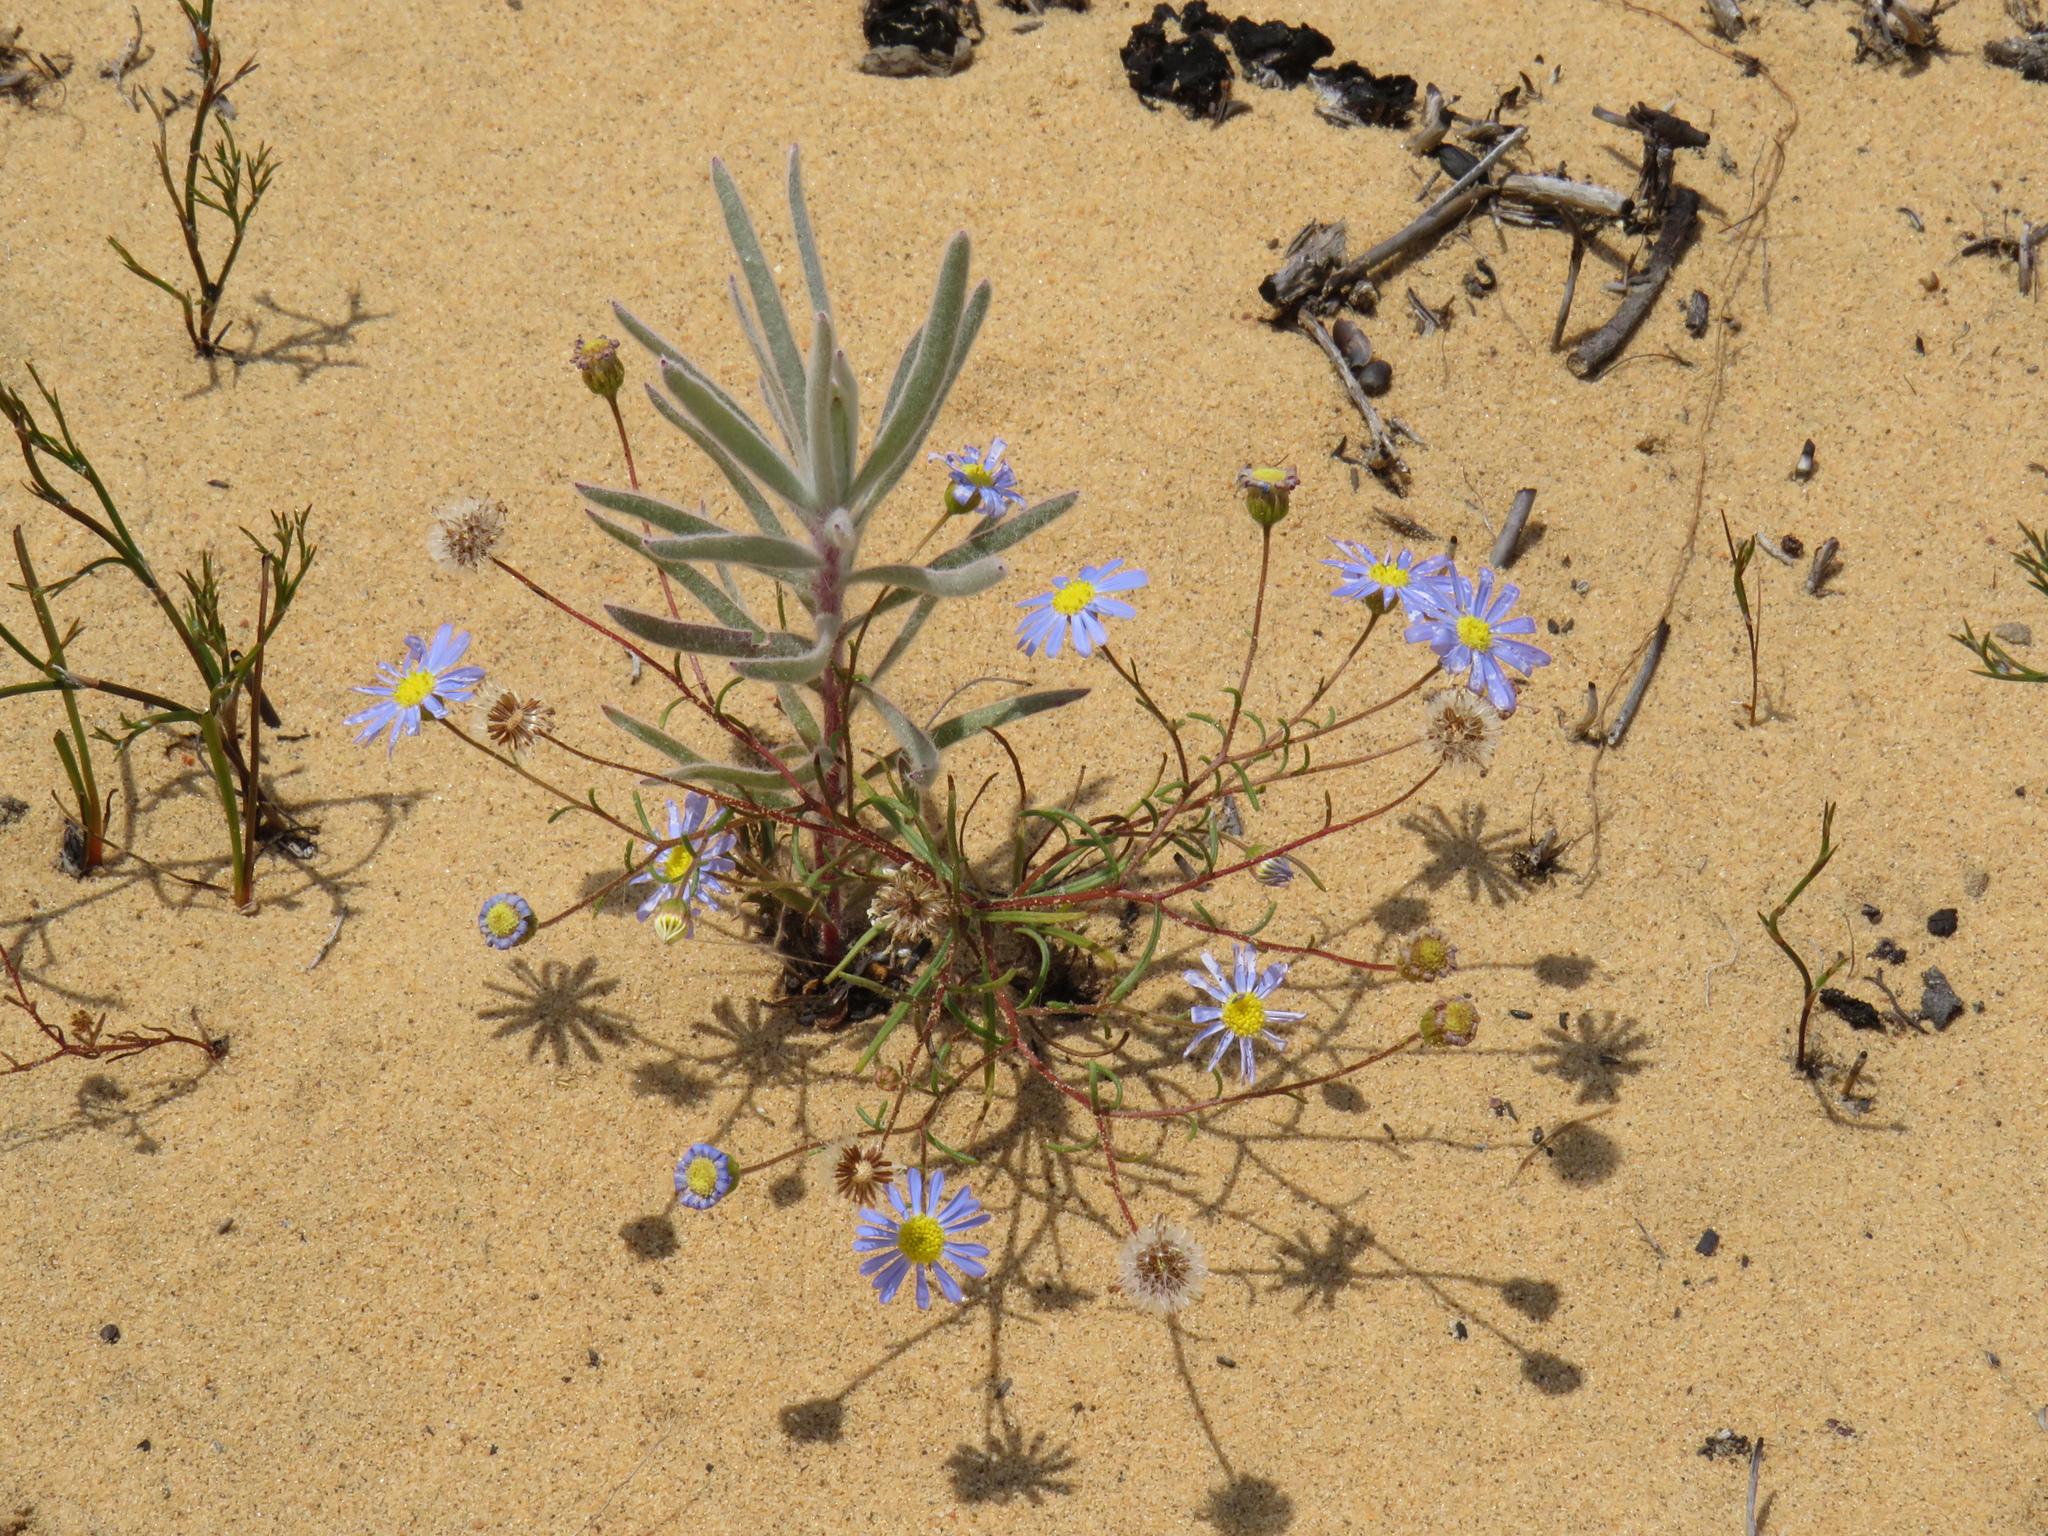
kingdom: Plantae
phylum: Tracheophyta
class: Magnoliopsida
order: Proteales
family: Proteaceae
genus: Leucospermum
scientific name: Leucospermum parile
